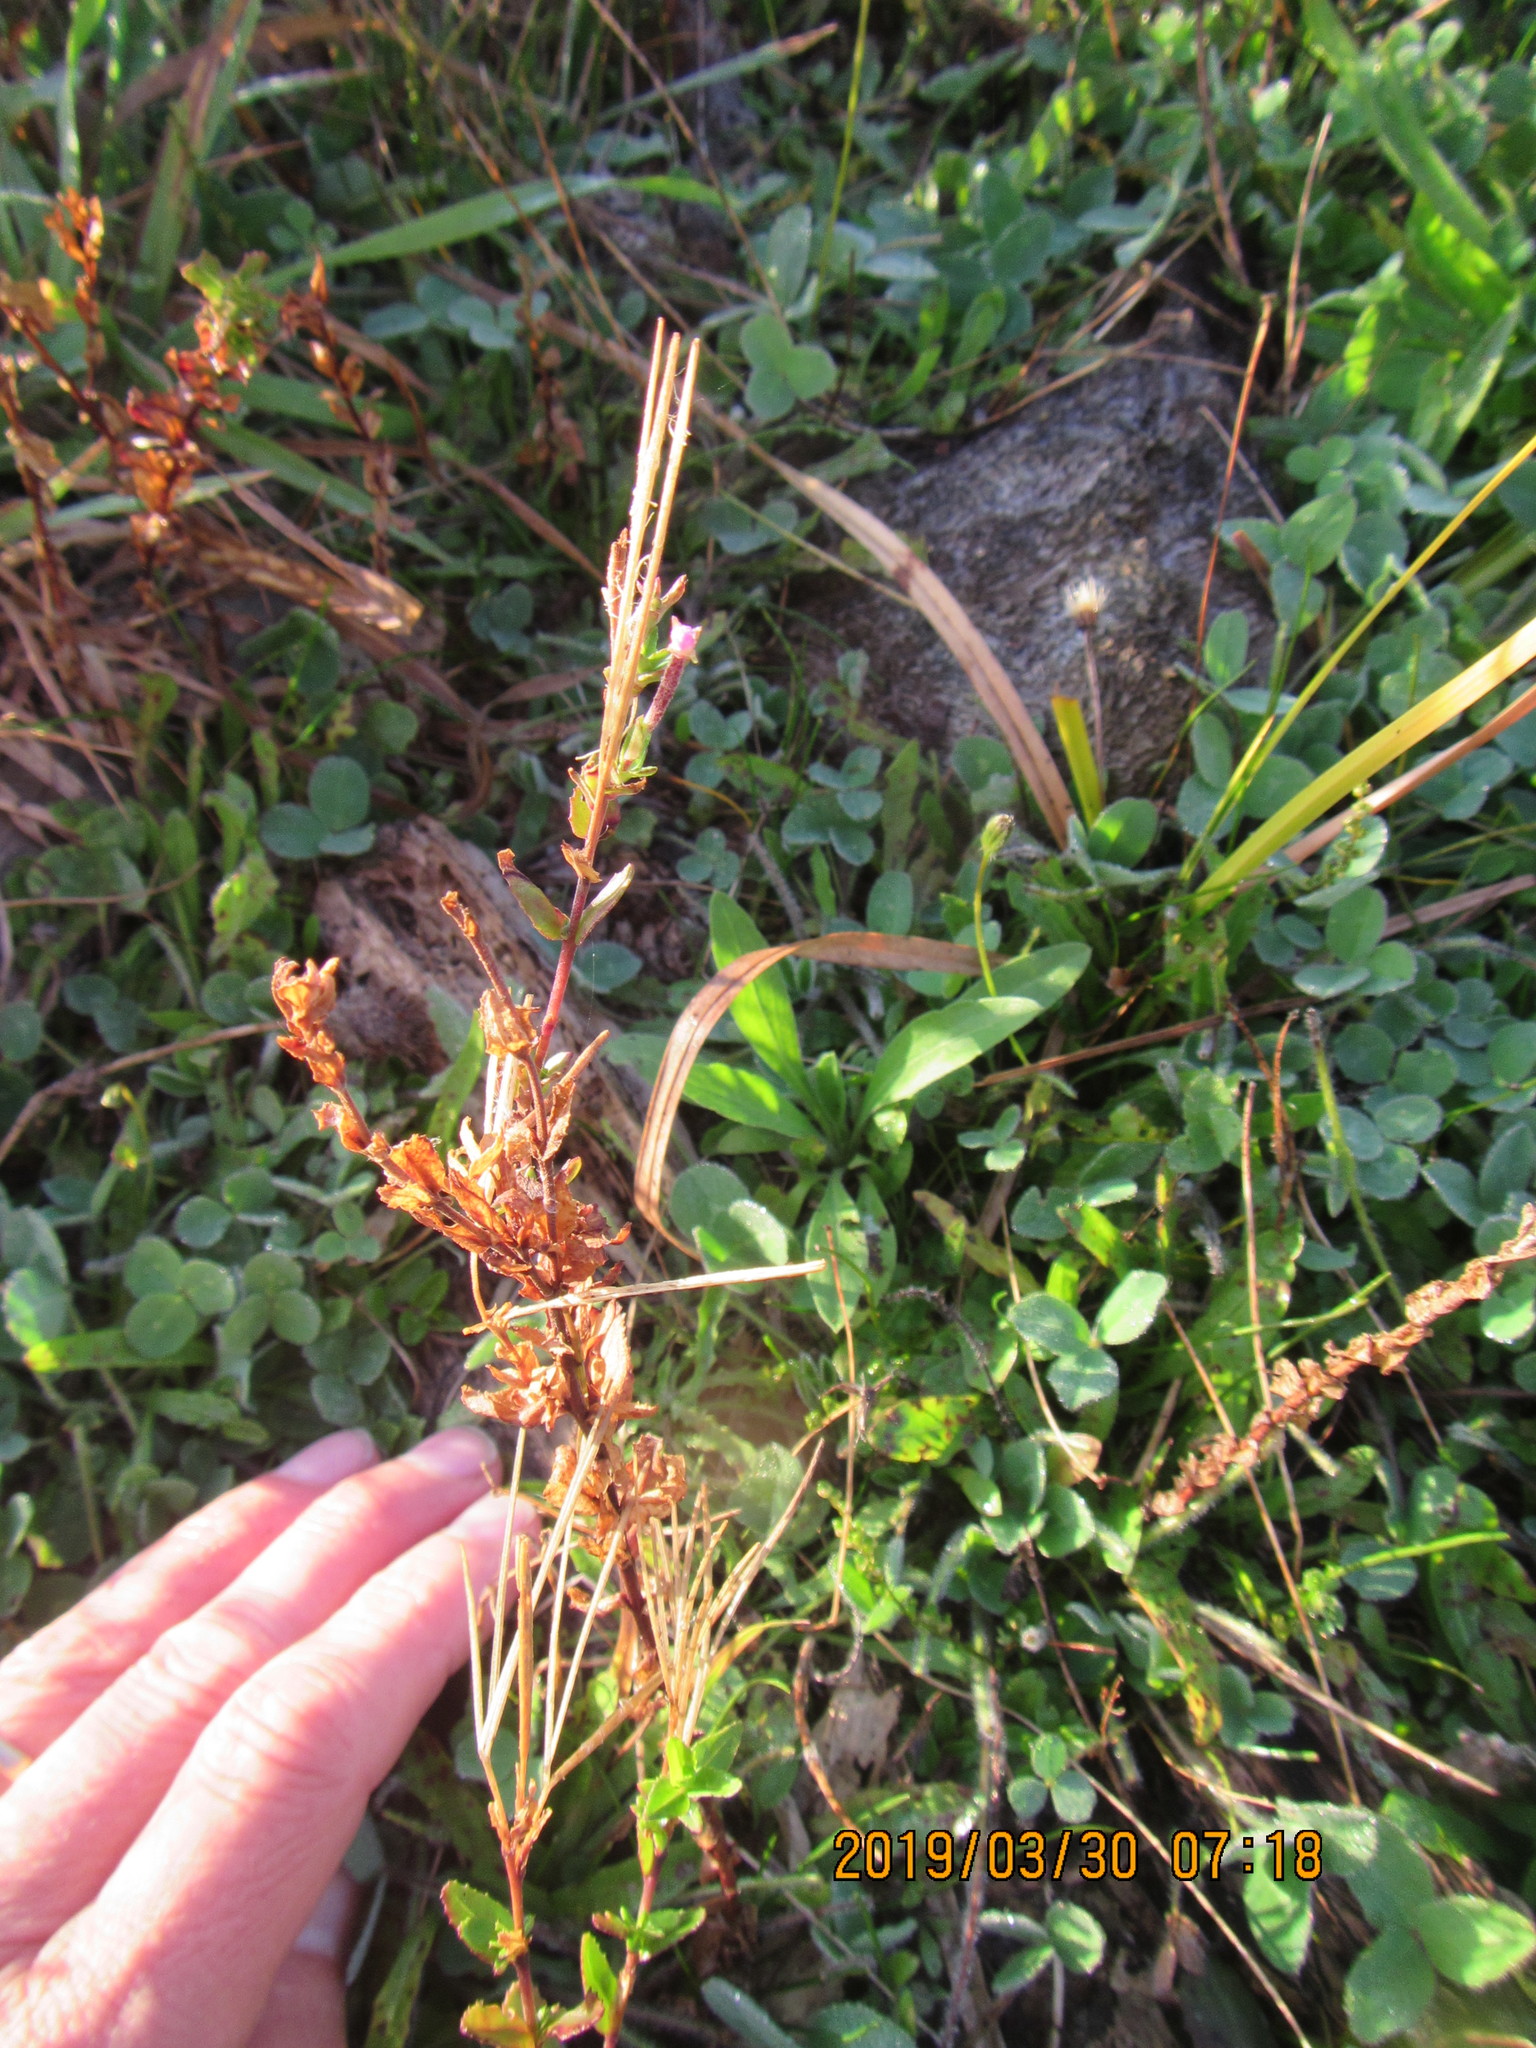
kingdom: Plantae
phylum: Tracheophyta
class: Magnoliopsida
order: Myrtales
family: Onagraceae
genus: Epilobium
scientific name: Epilobium billardiereanum
